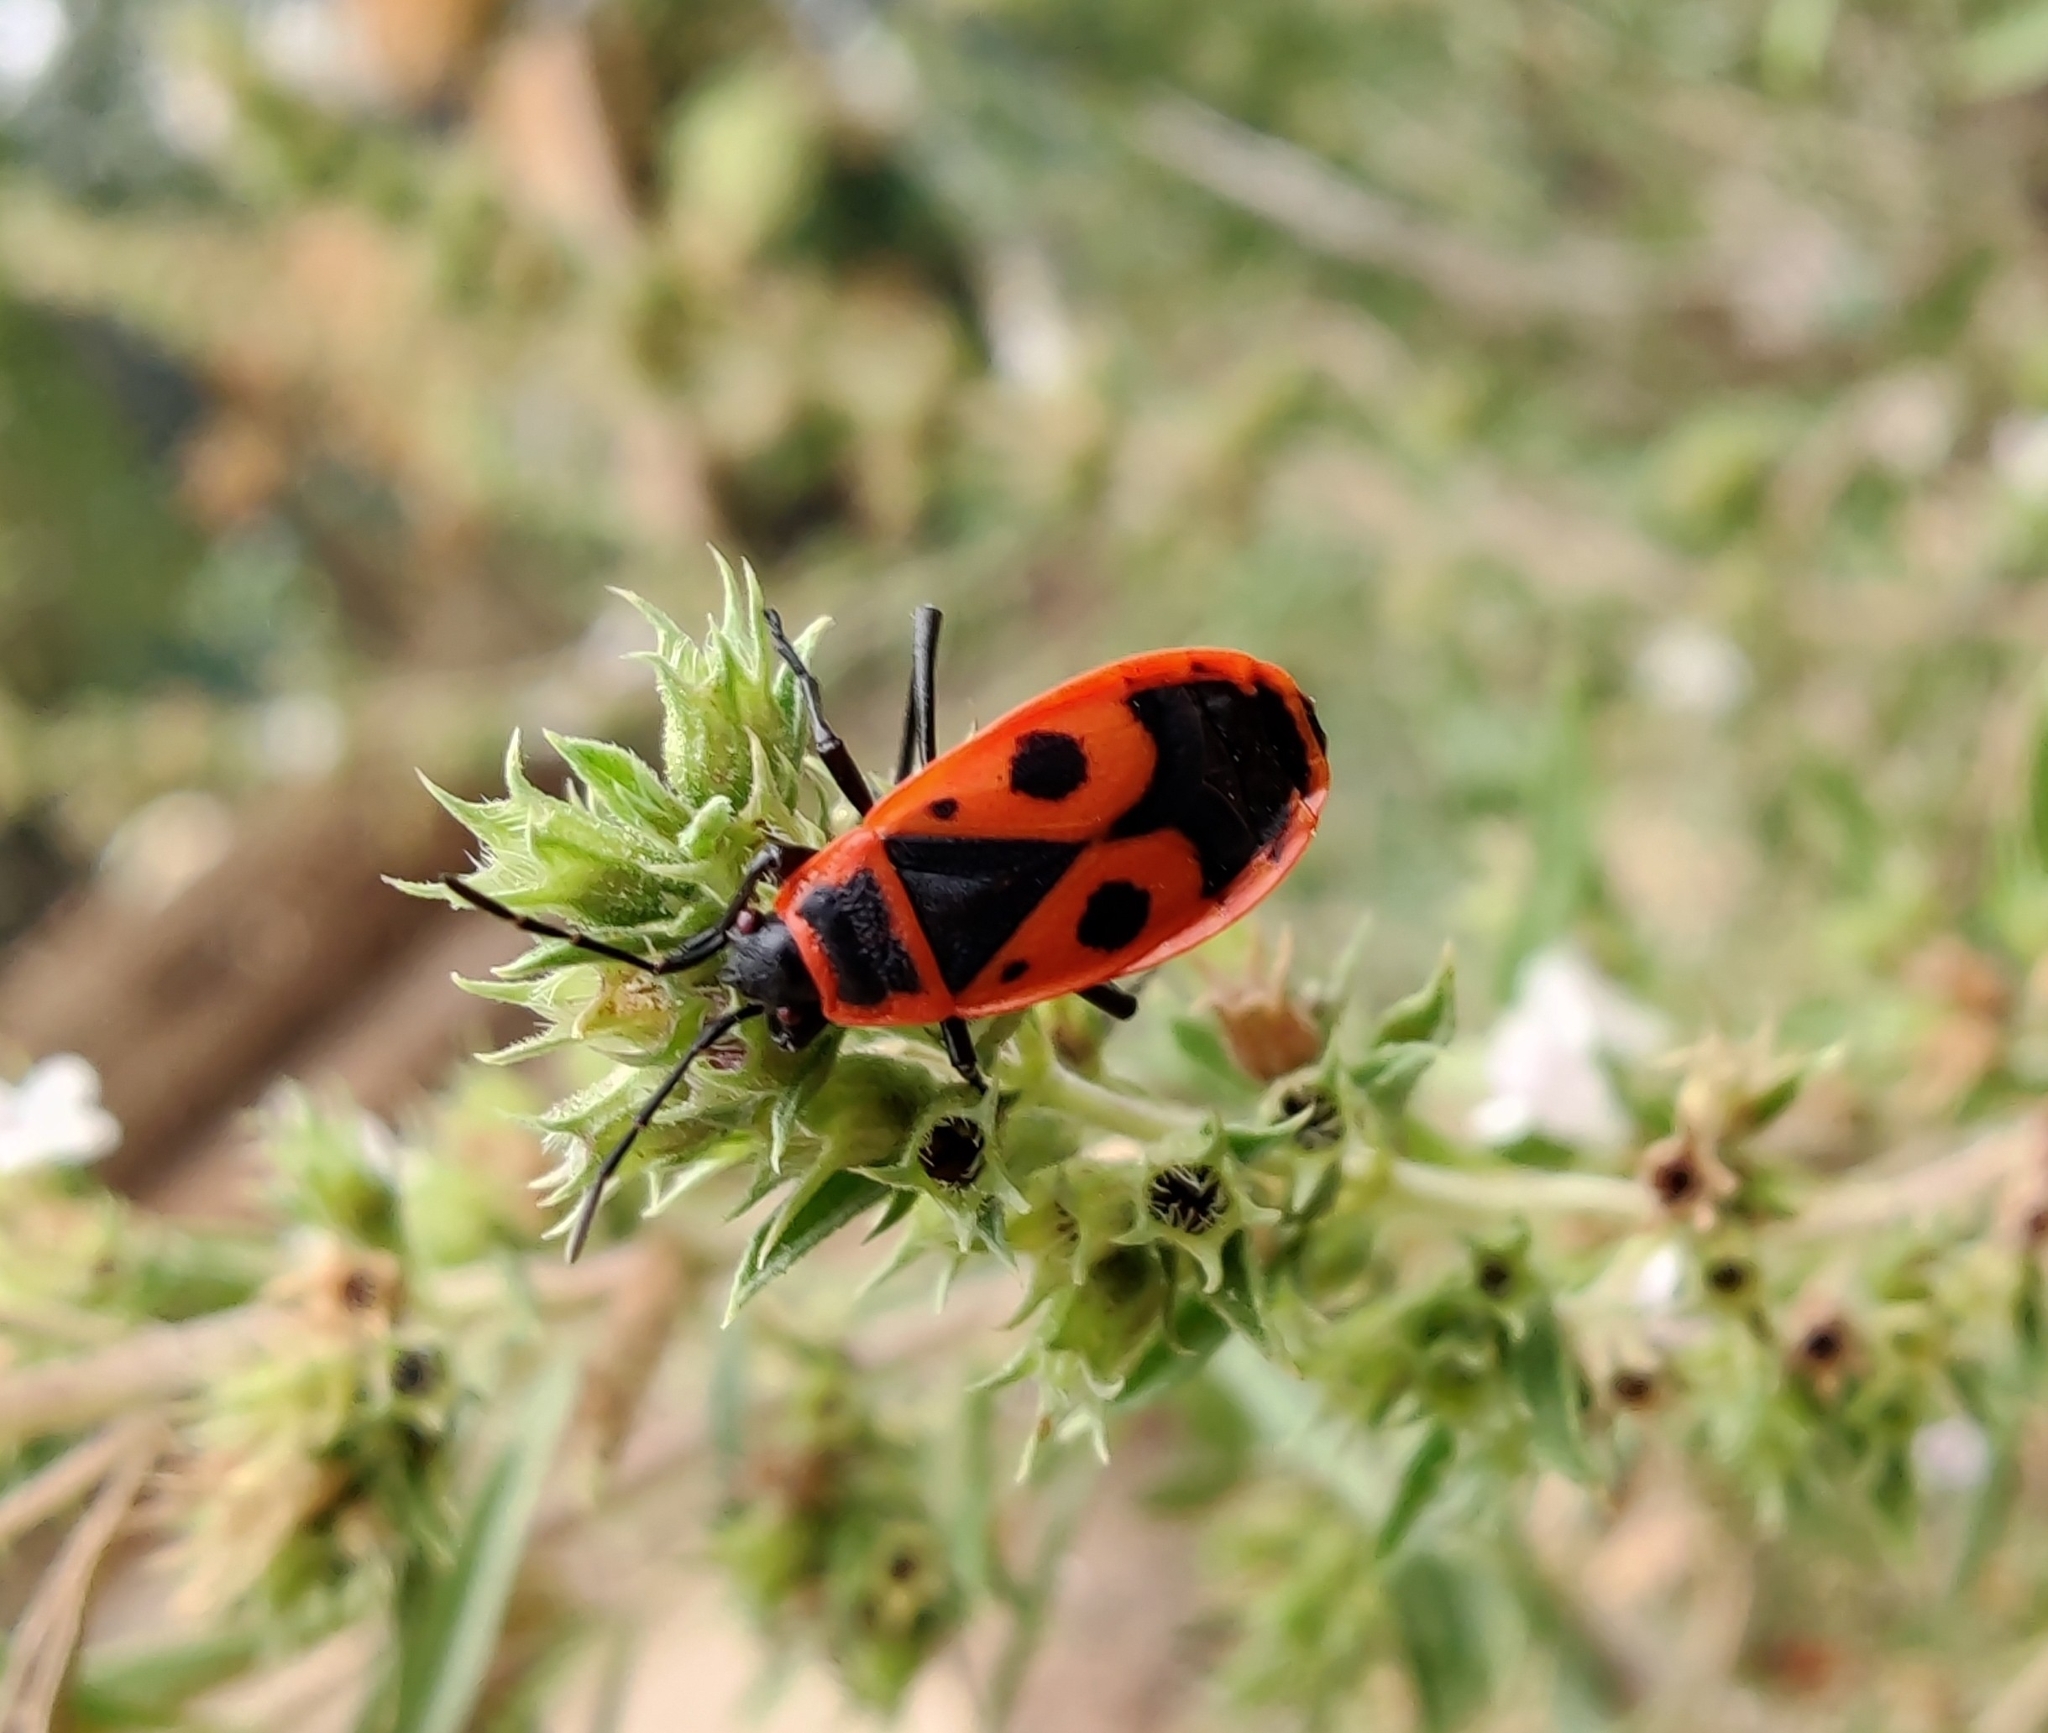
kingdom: Animalia
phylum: Arthropoda
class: Insecta
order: Hemiptera
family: Pyrrhocoridae
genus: Pyrrhocoris
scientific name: Pyrrhocoris apterus
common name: Firebug
